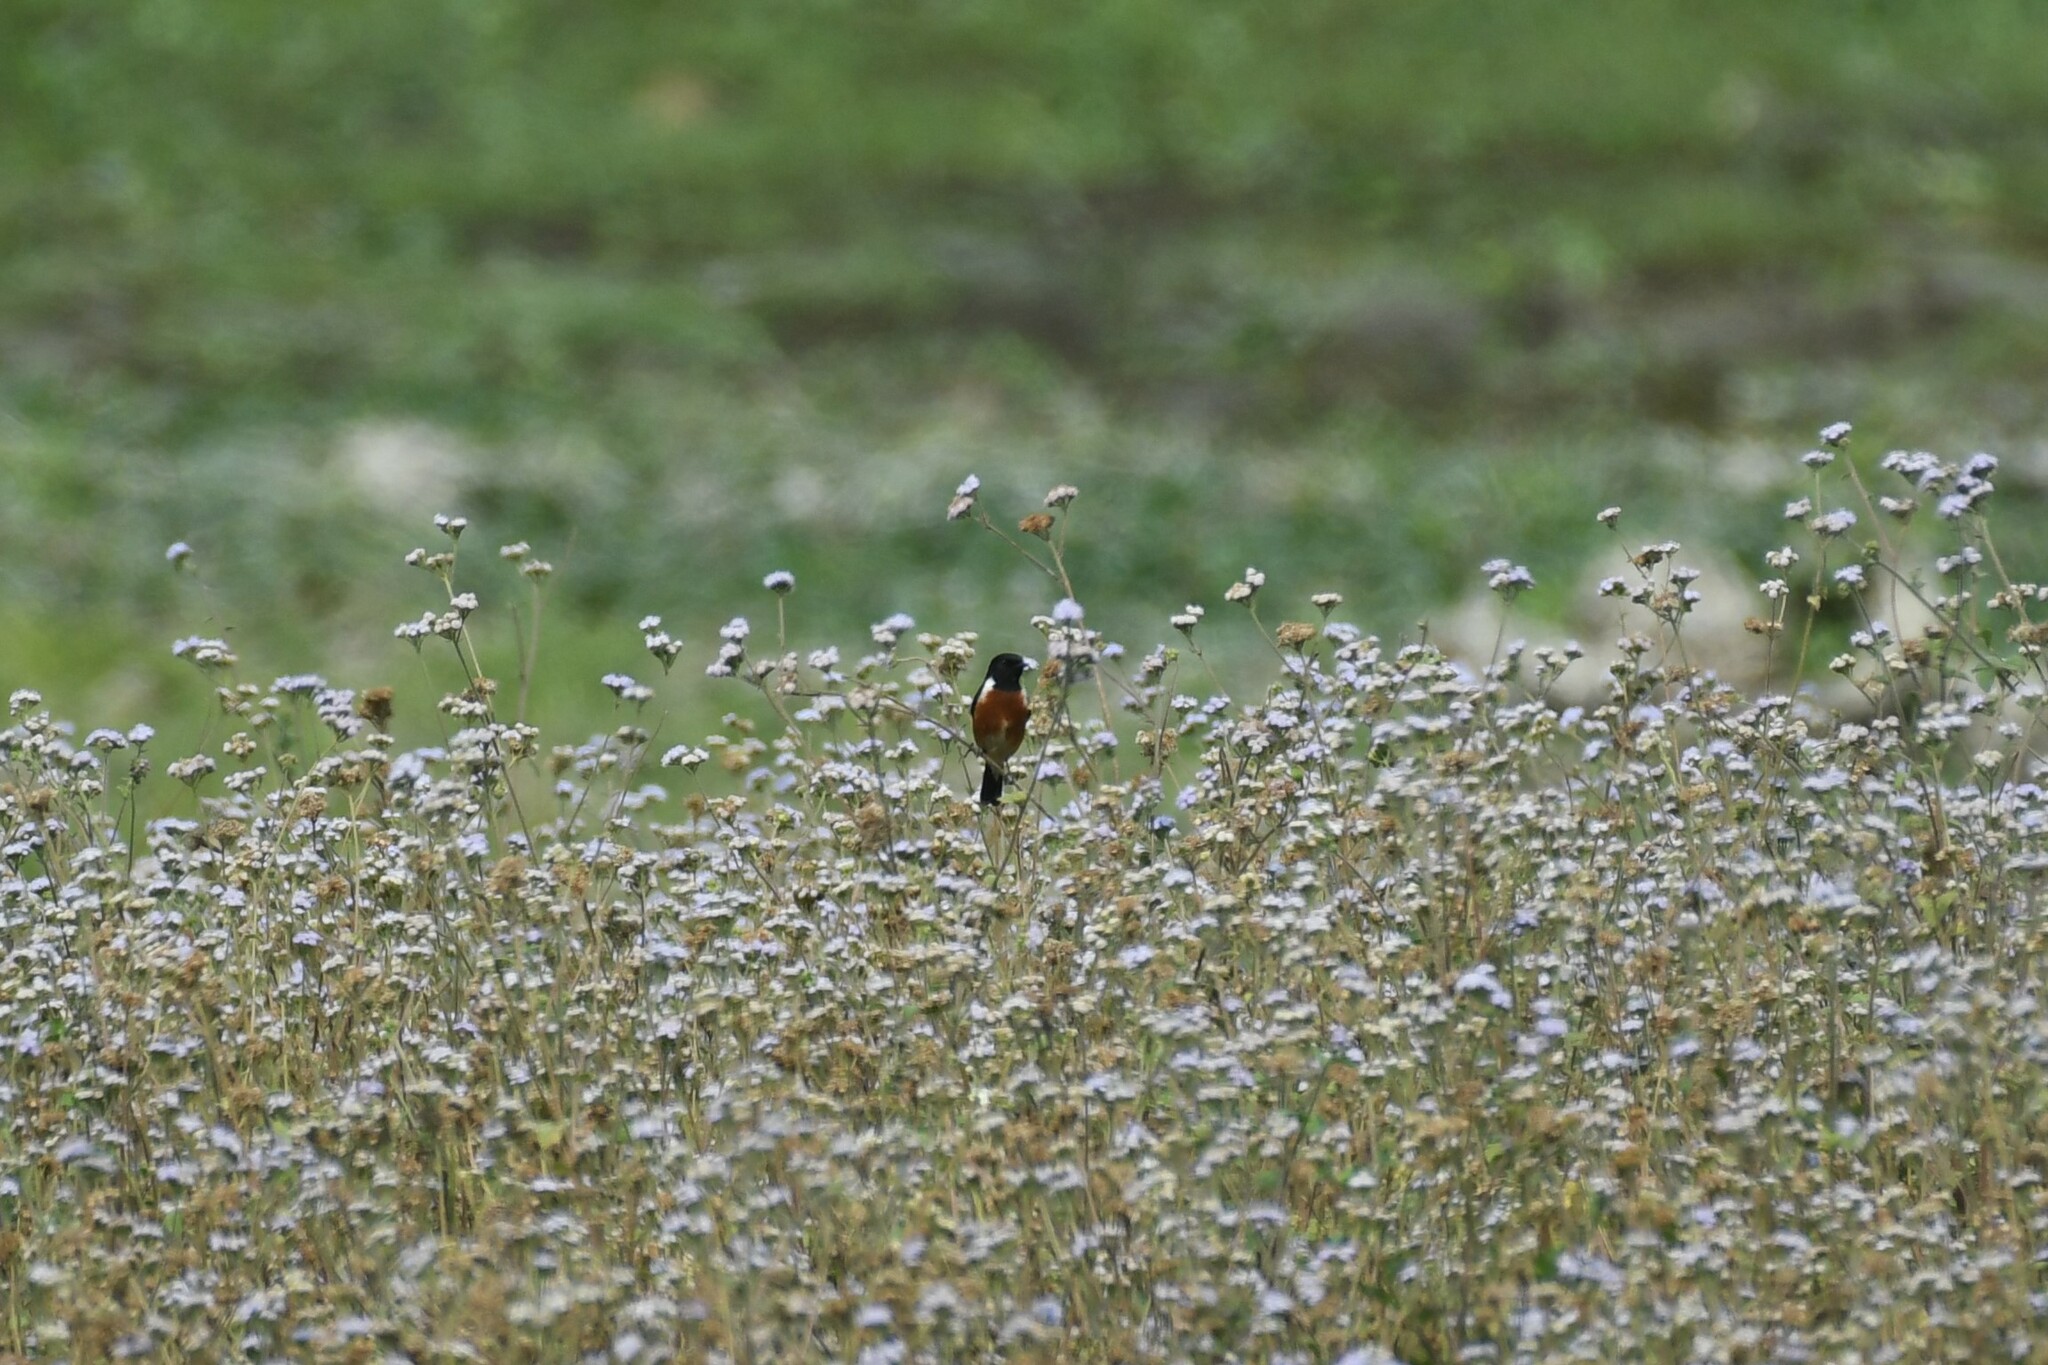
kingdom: Animalia
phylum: Chordata
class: Aves
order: Passeriformes
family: Muscicapidae
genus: Saxicola
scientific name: Saxicola maurus
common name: Siberian stonechat
